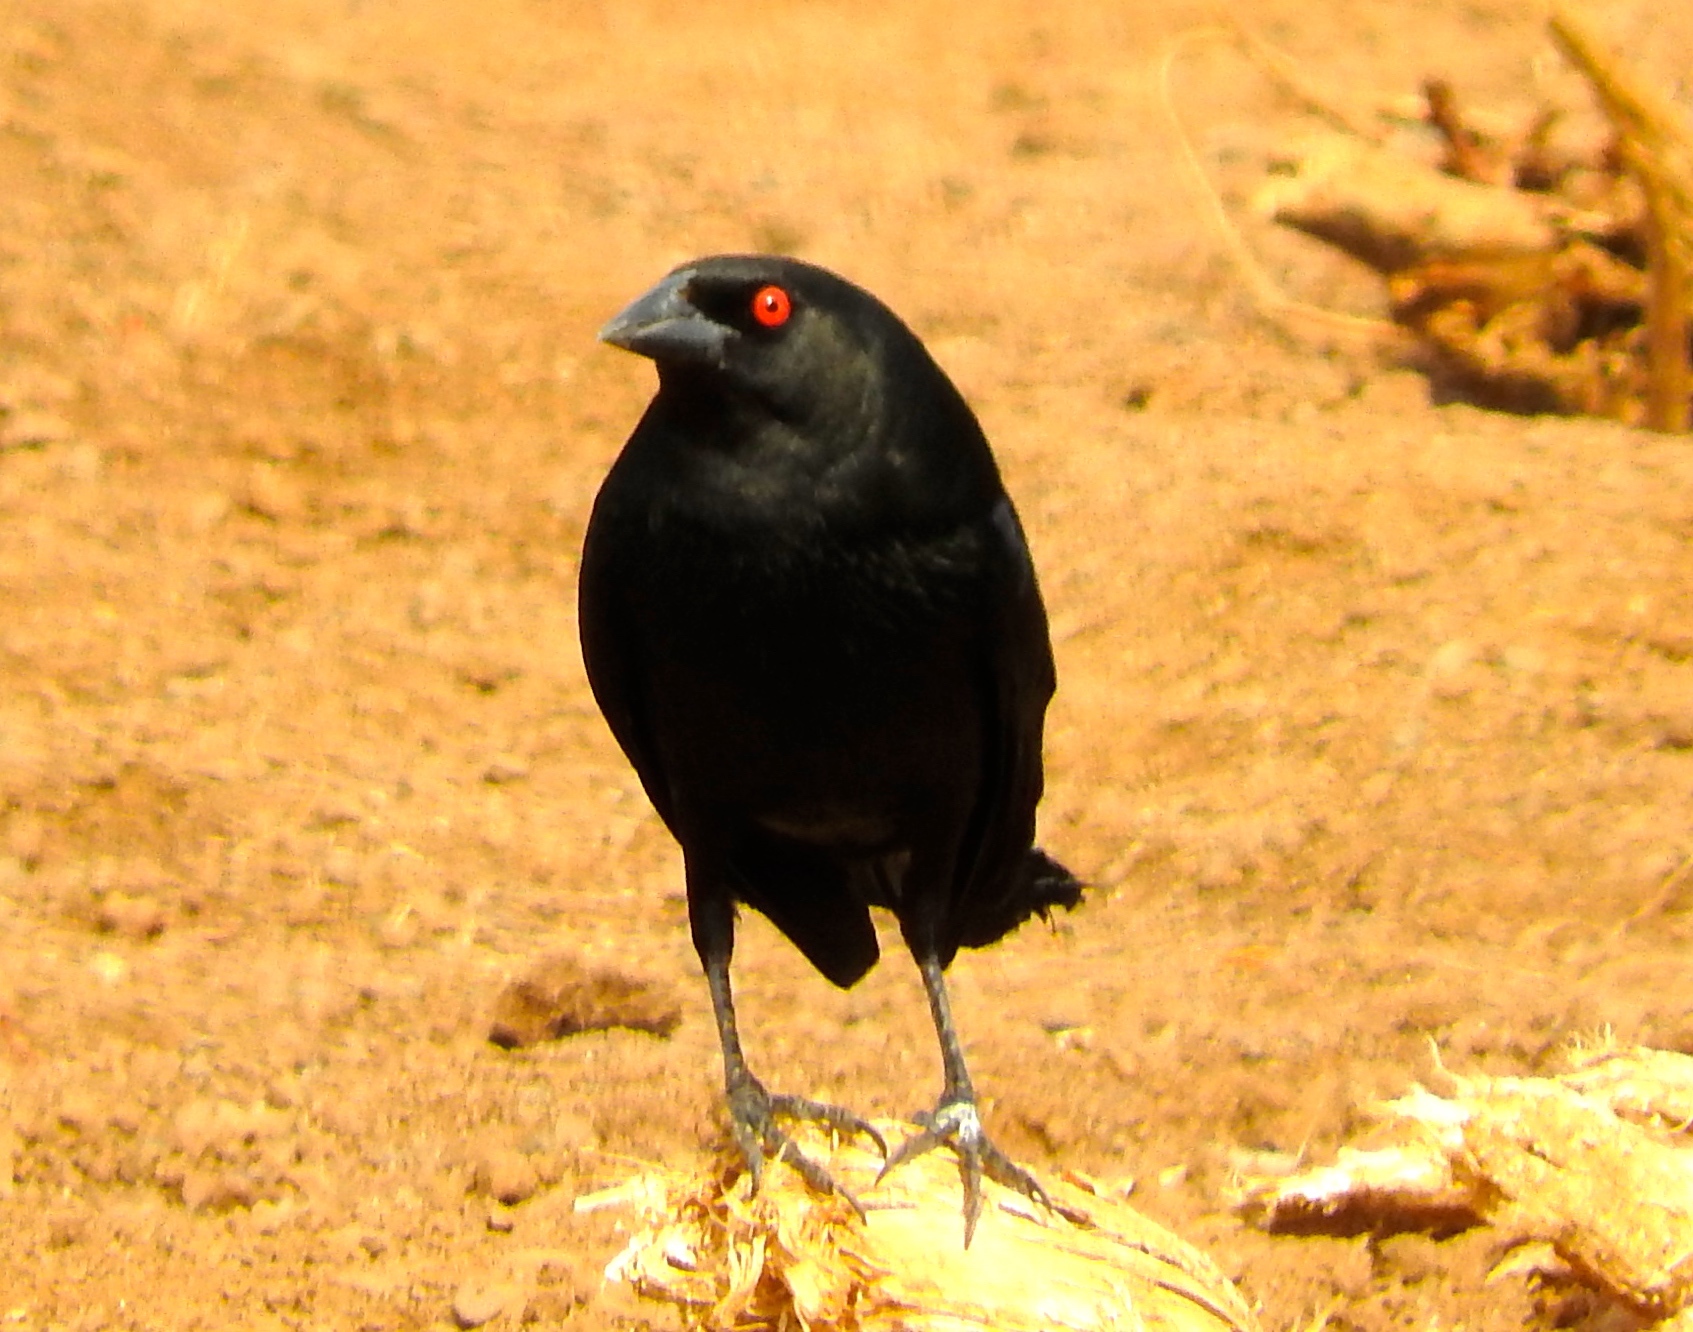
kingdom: Animalia
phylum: Chordata
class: Aves
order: Passeriformes
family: Icteridae
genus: Molothrus
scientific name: Molothrus aeneus
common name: Bronzed cowbird
